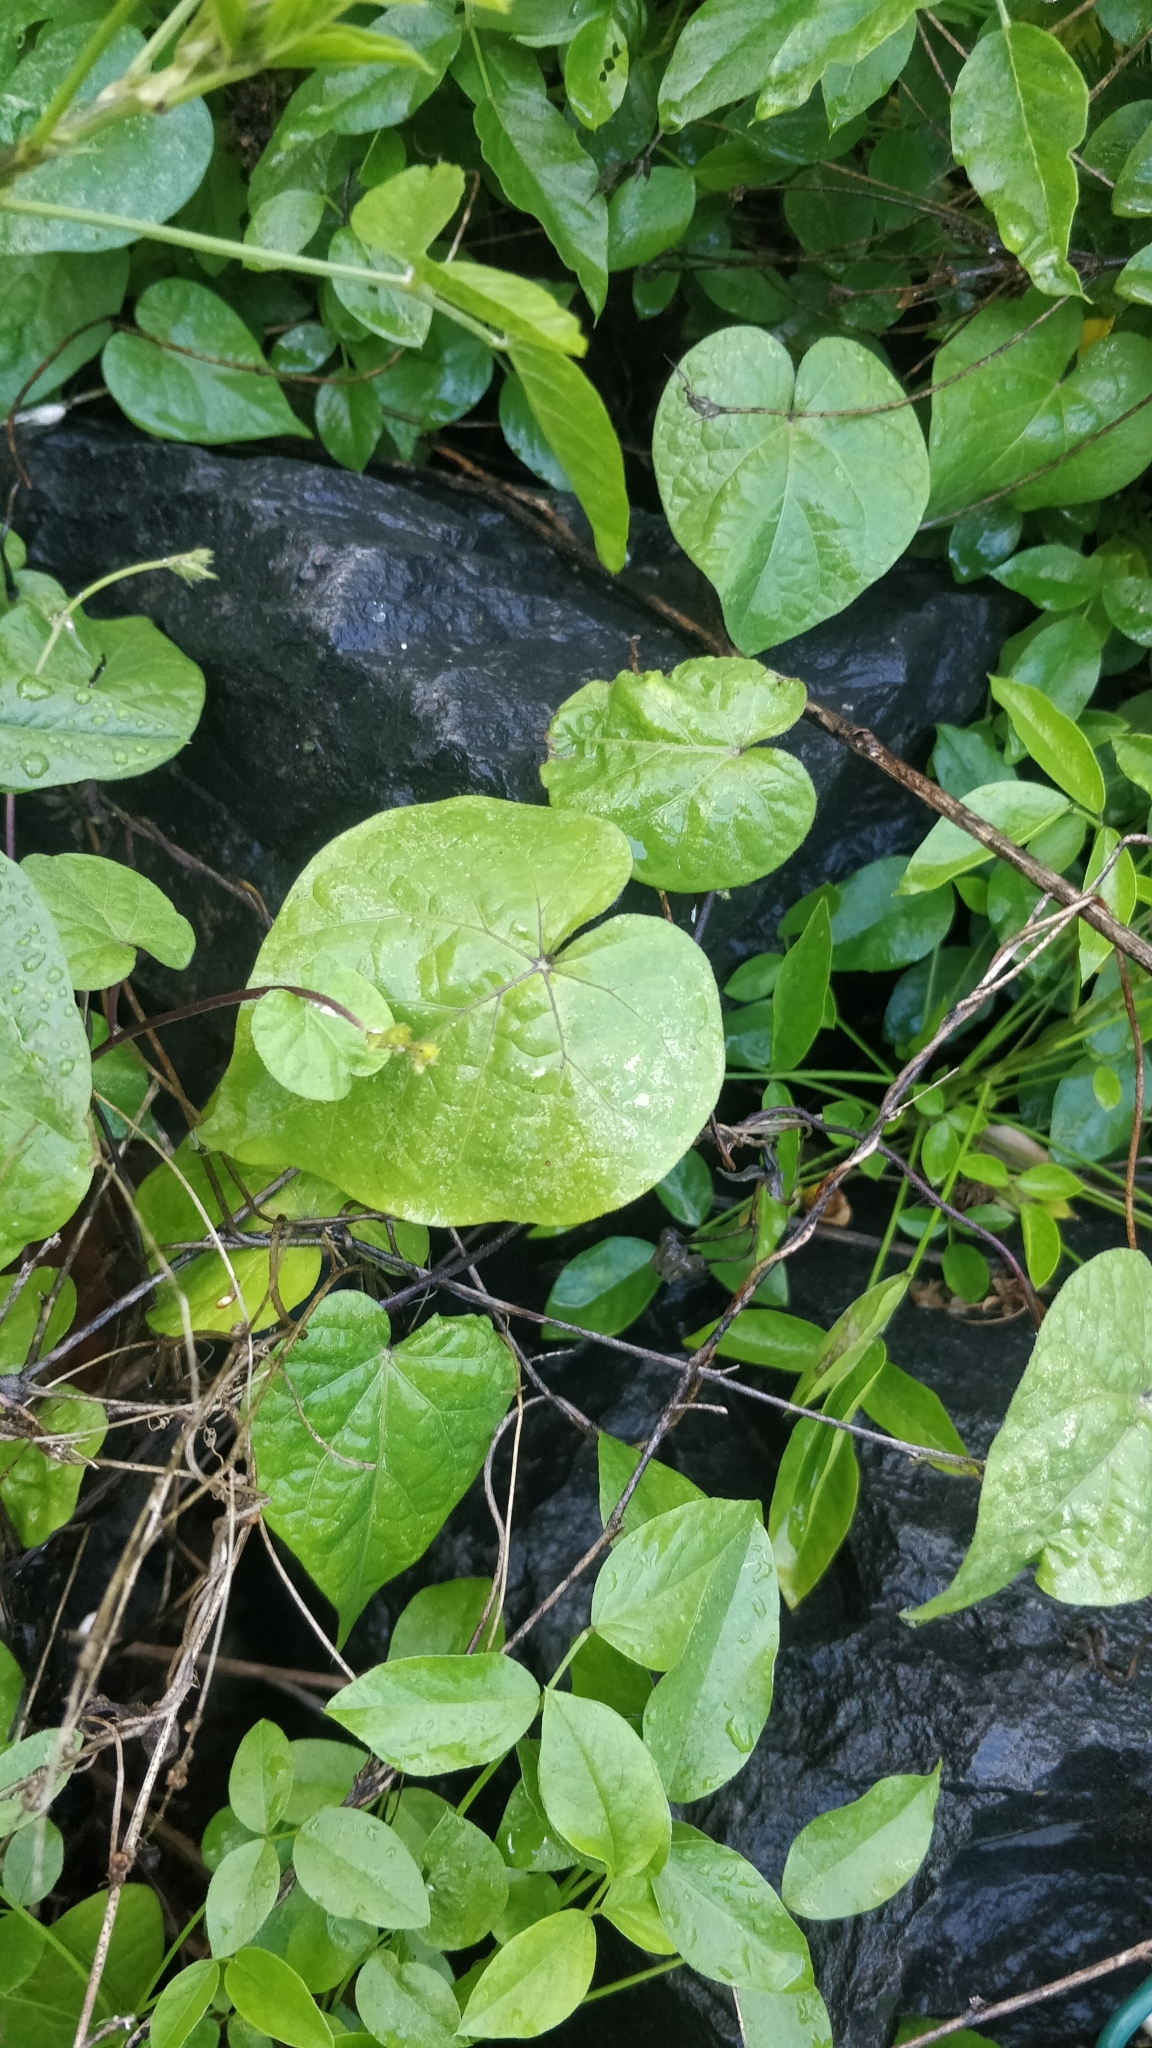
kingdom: Plantae
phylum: Tracheophyta
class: Magnoliopsida
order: Solanales
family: Convolvulaceae
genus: Ipomoea
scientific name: Ipomoea purpurea
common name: Common morning-glory
